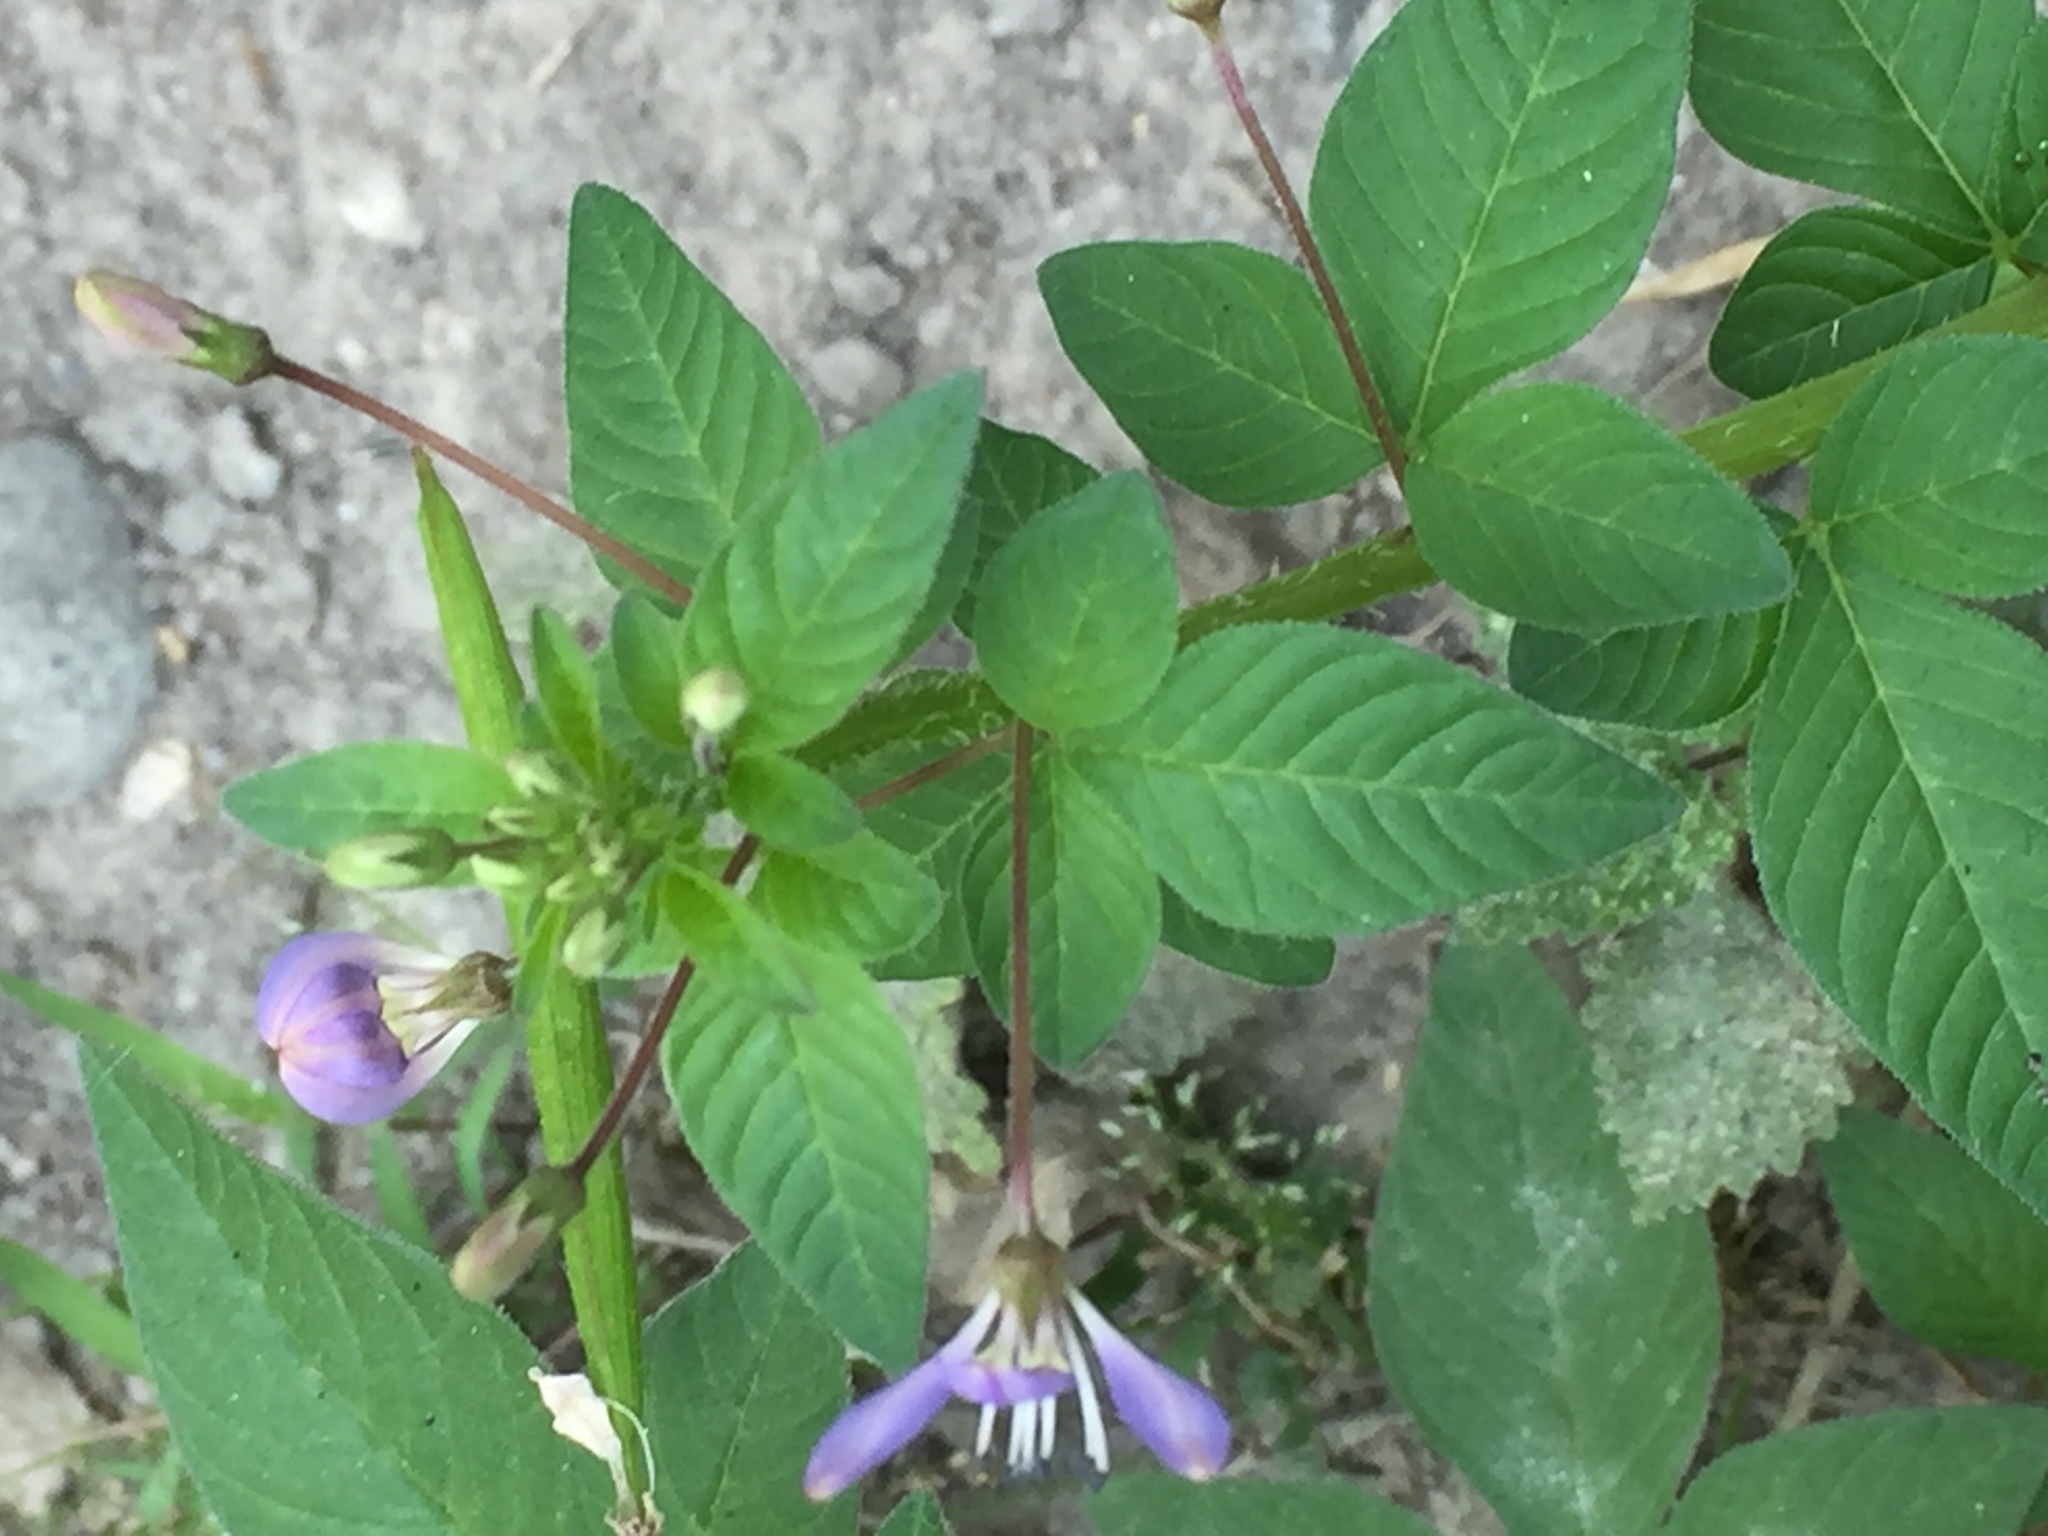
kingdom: Plantae
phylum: Tracheophyta
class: Magnoliopsida
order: Brassicales
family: Cleomaceae
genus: Sieruela
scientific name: Sieruela rutidosperma
